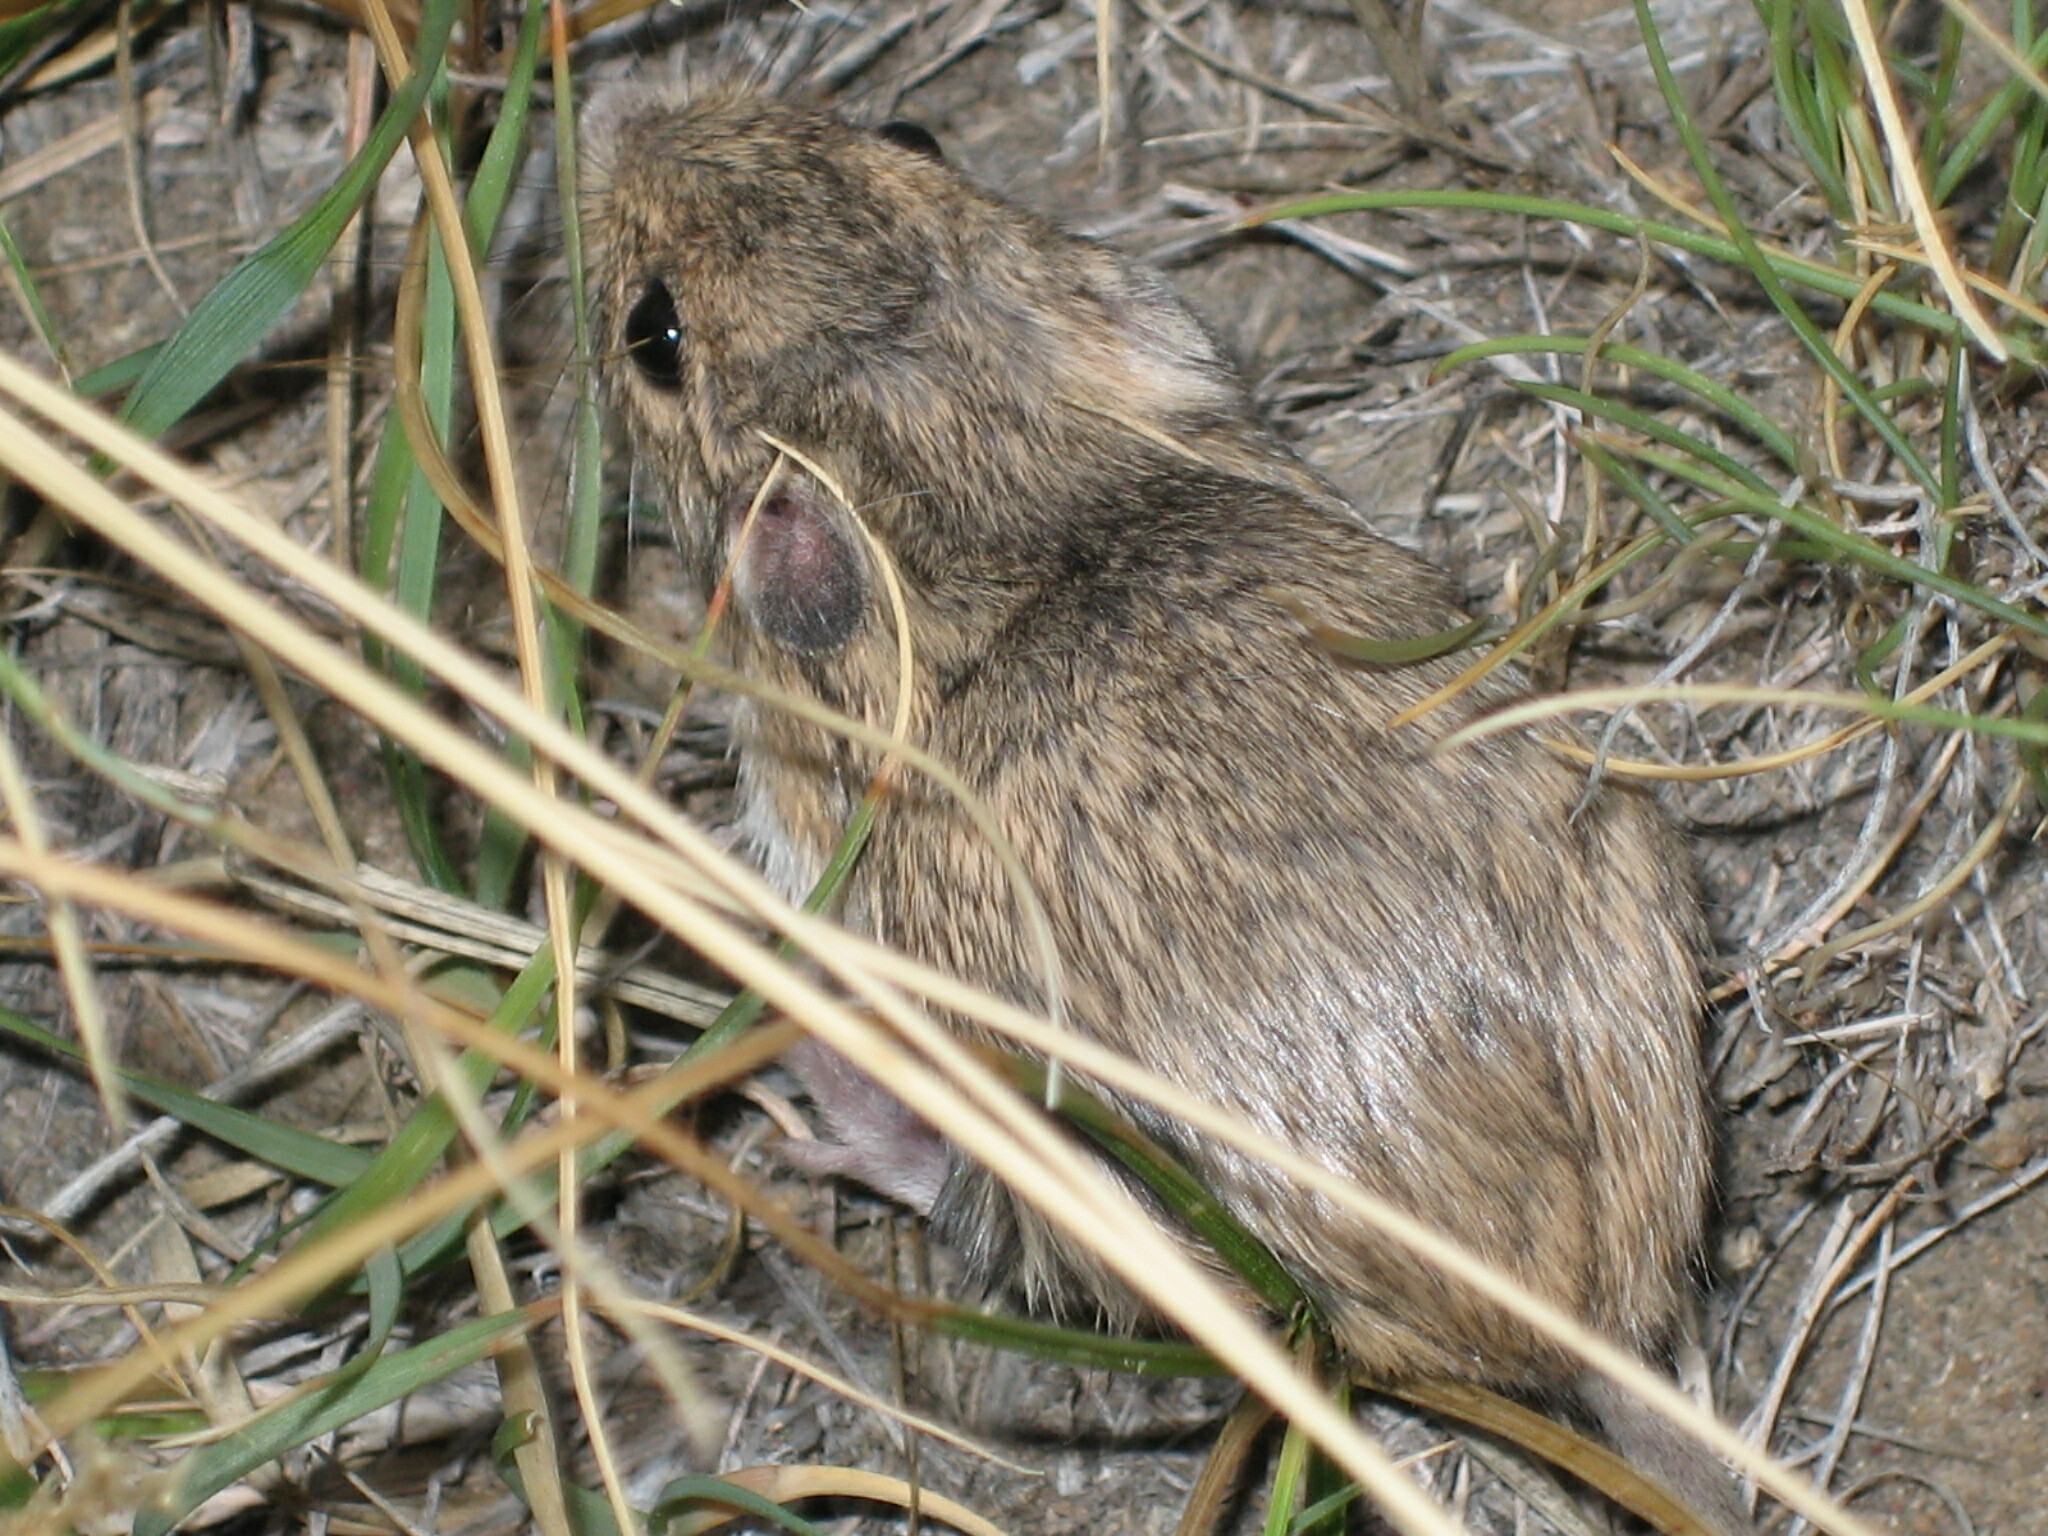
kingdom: Animalia
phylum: Chordata
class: Mammalia
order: Rodentia
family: Heteromyidae
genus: Perognathus
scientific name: Perognathus flavescens
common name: Plains pocket mouse
